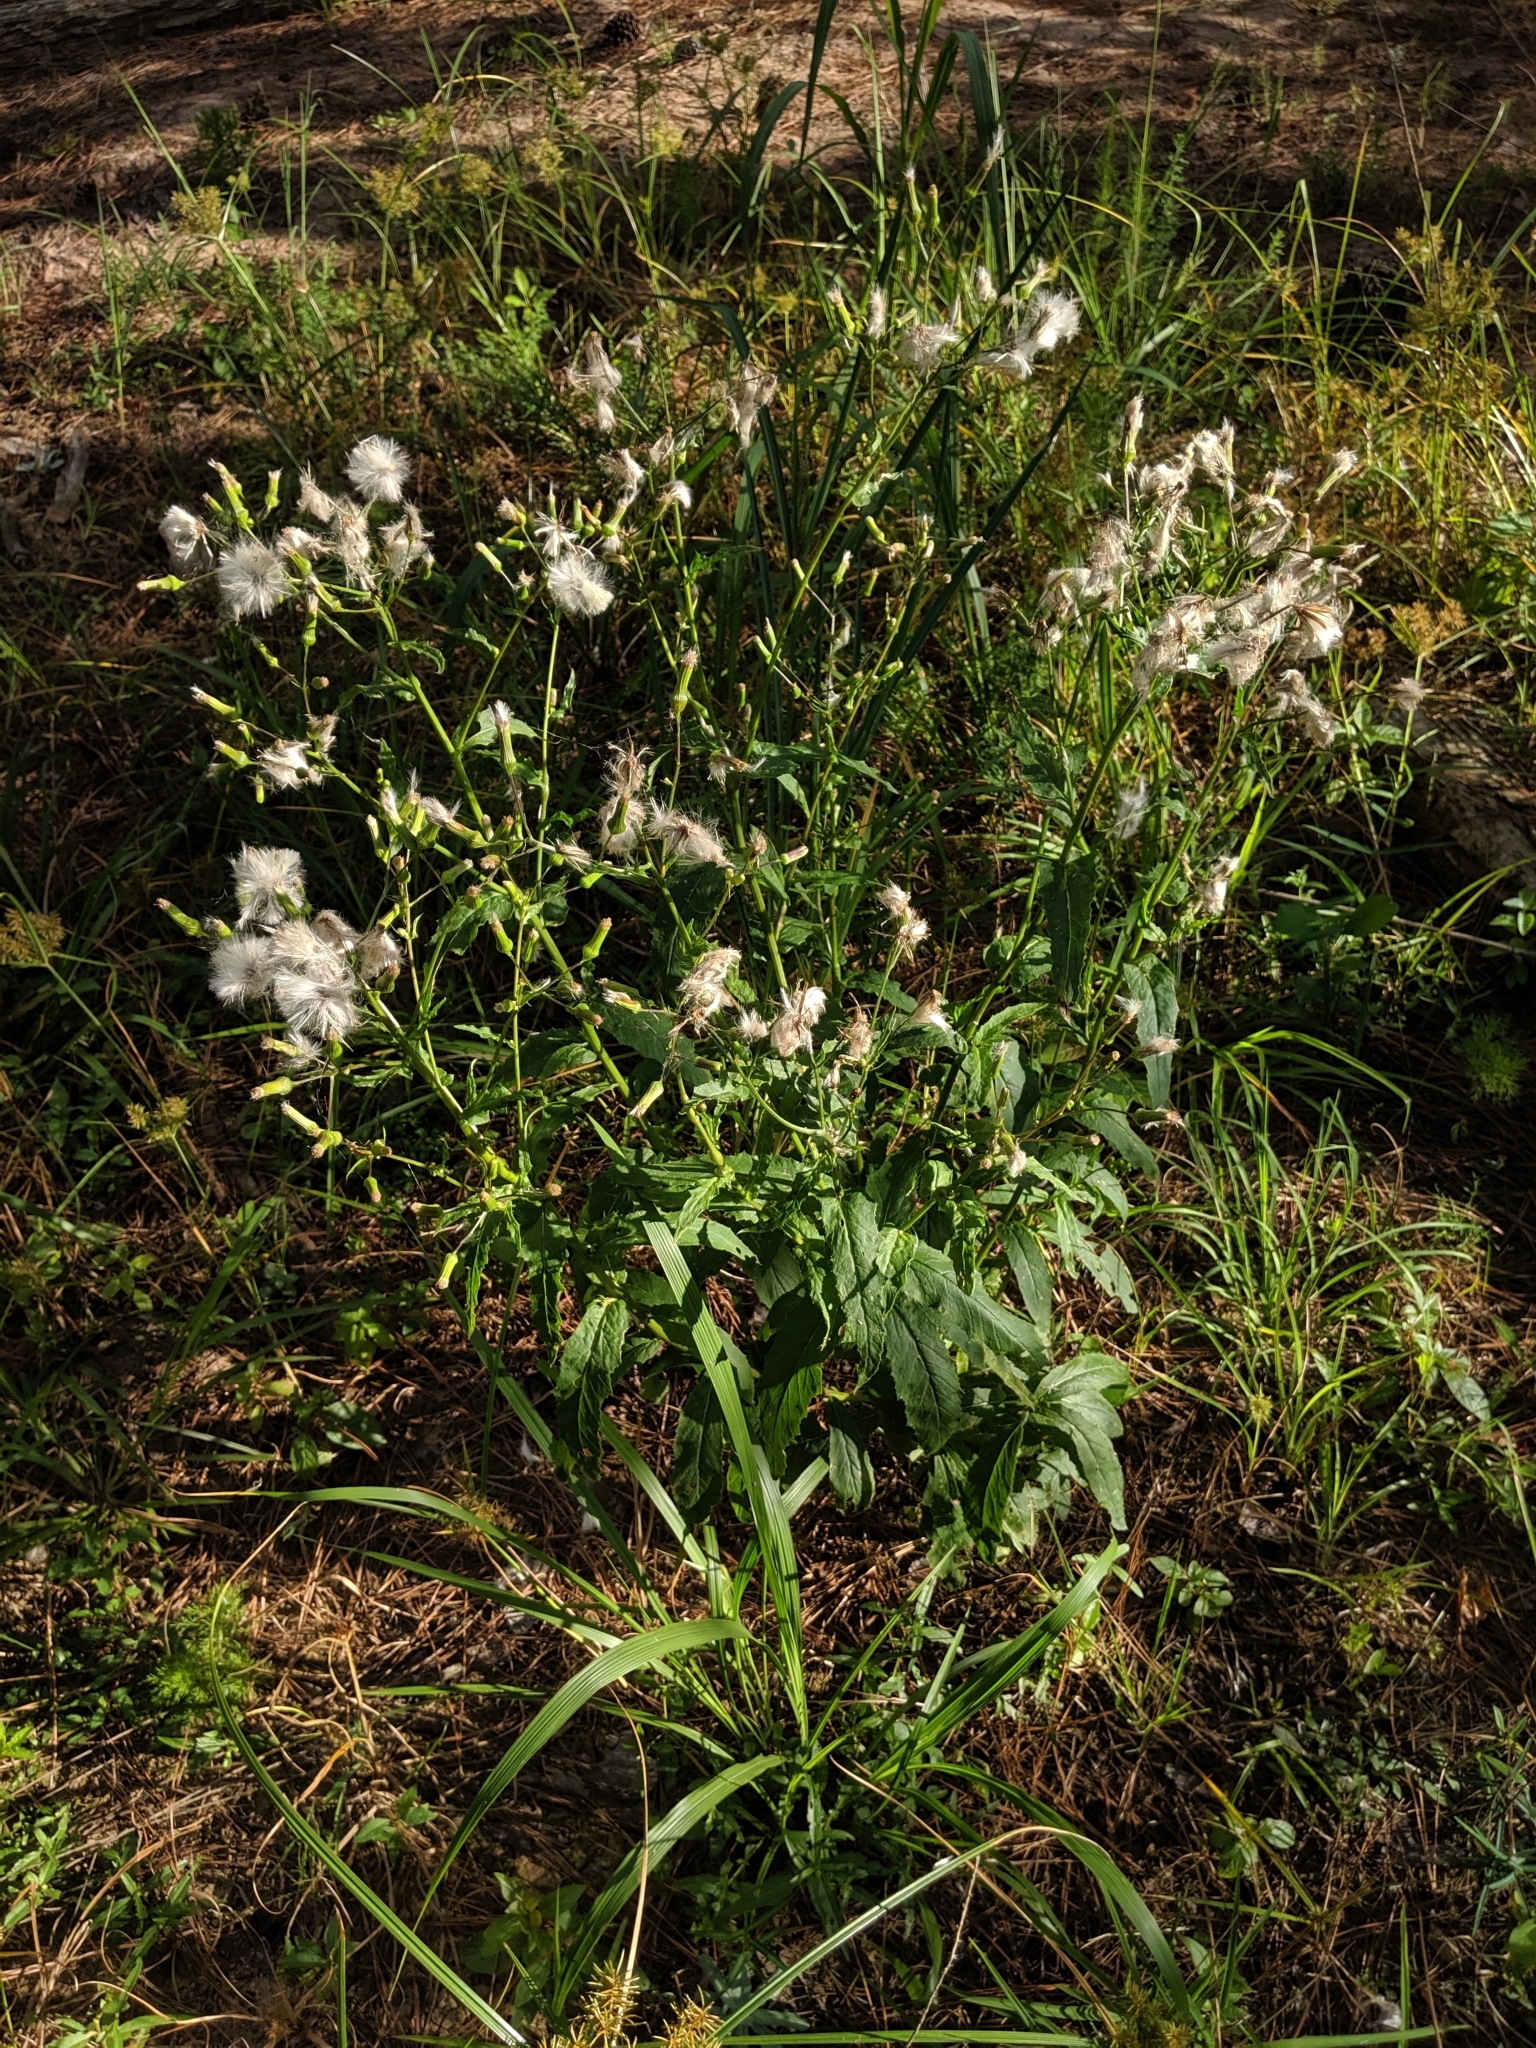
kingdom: Plantae
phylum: Tracheophyta
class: Magnoliopsida
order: Asterales
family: Asteraceae
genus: Erechtites
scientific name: Erechtites hieraciifolius
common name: American burnweed
